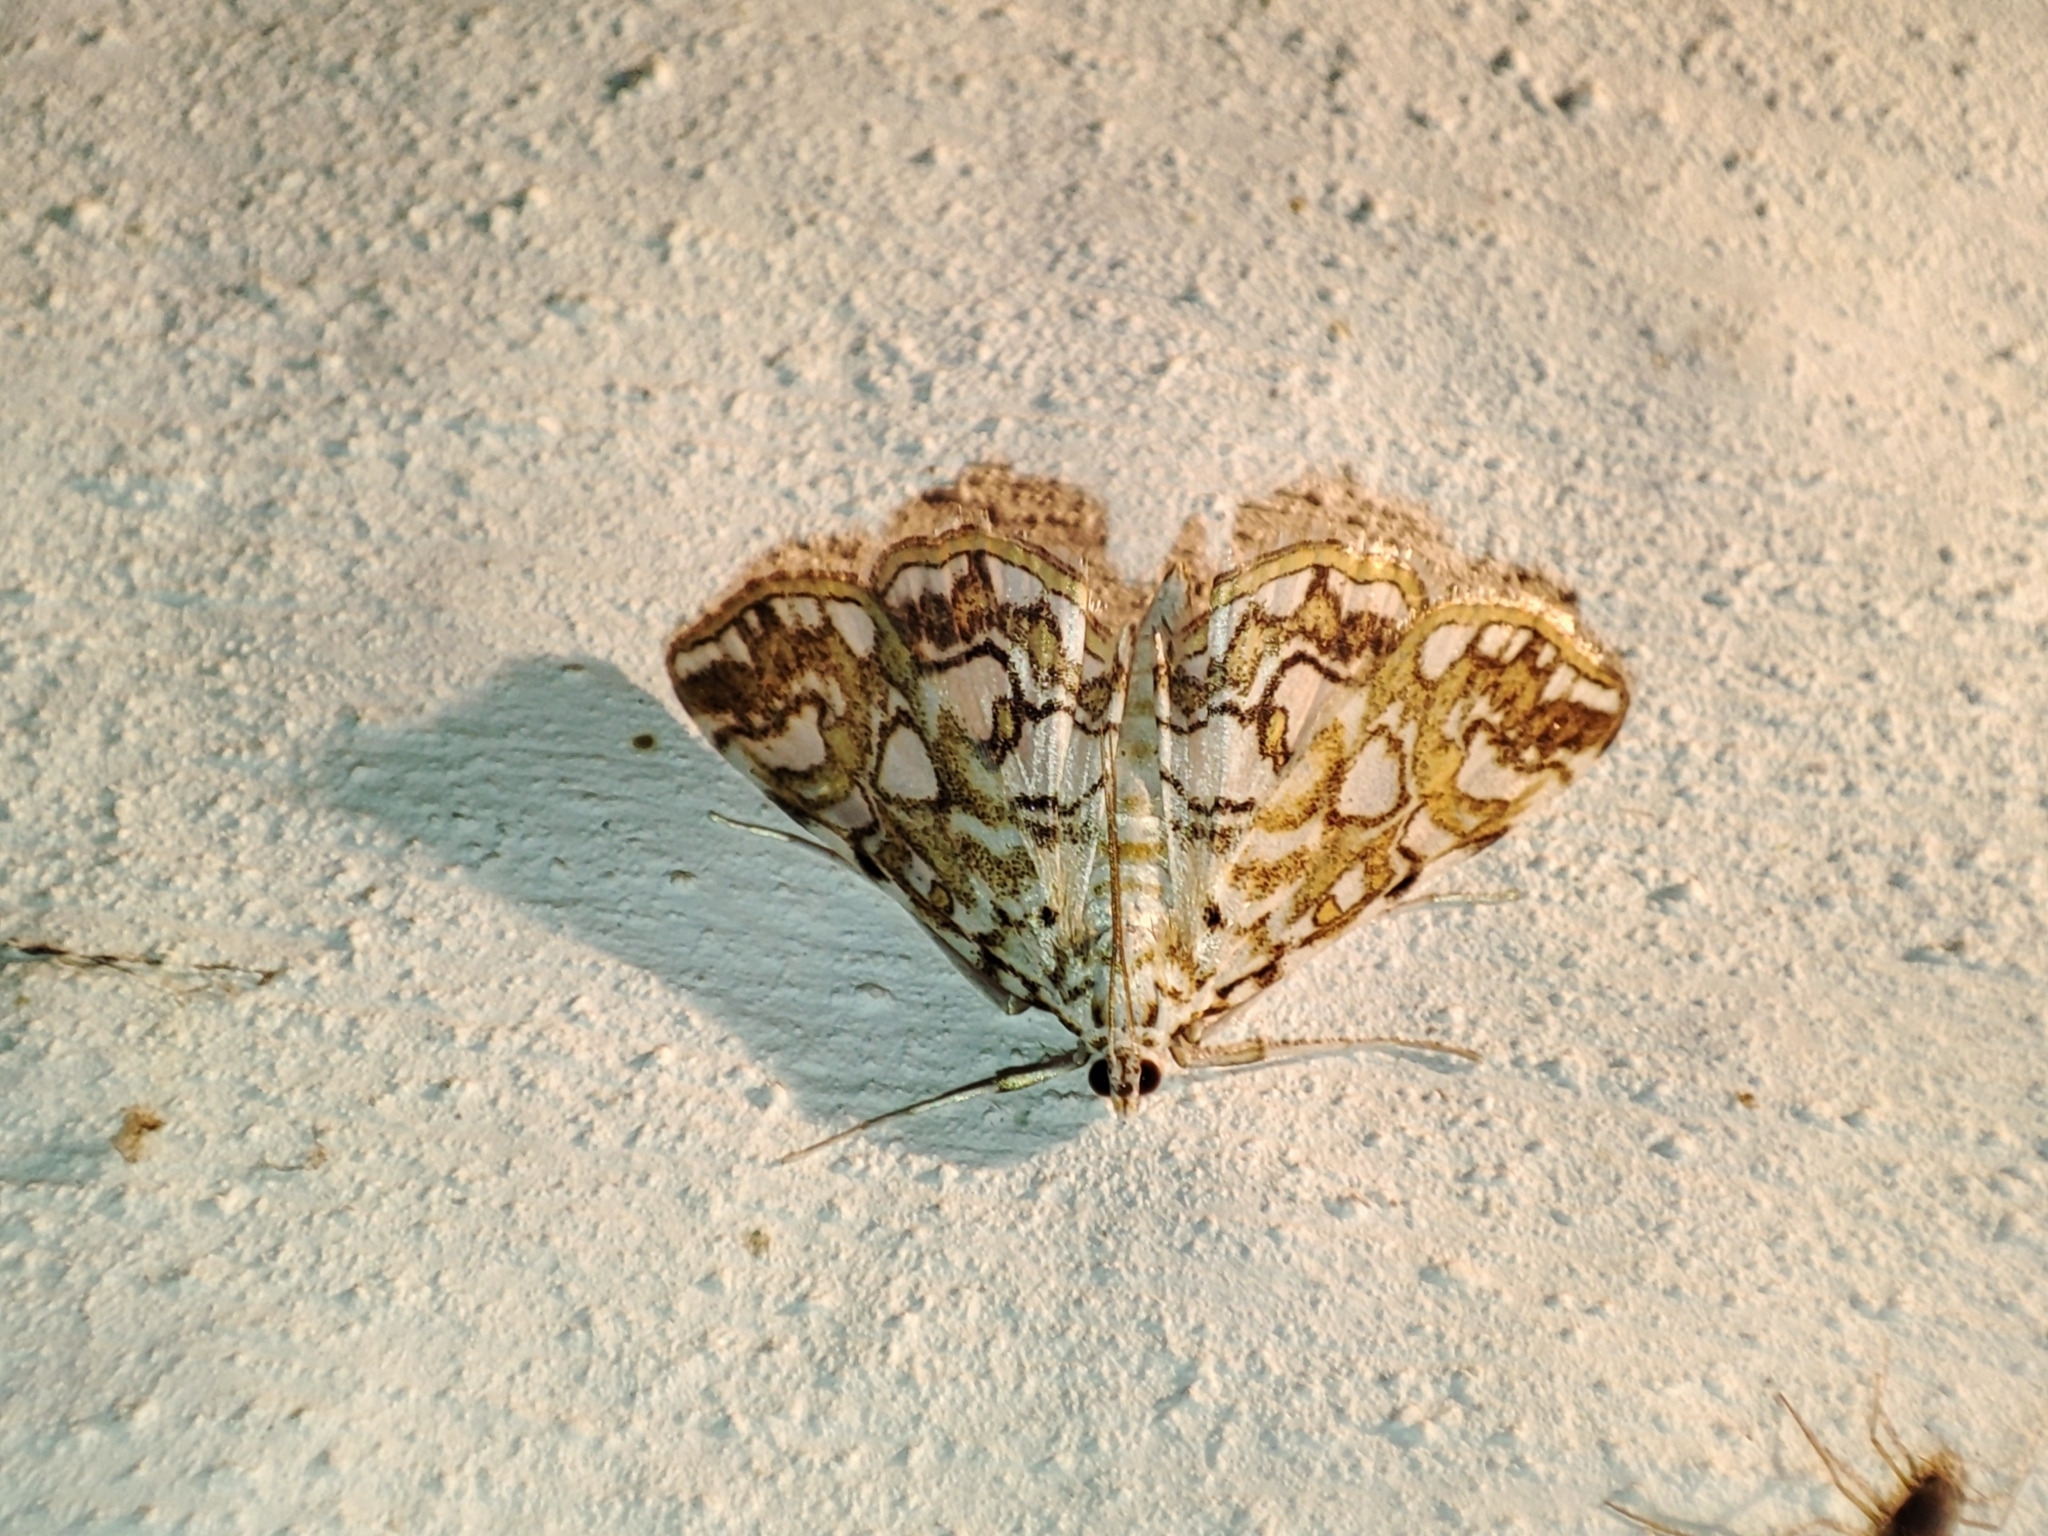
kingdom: Animalia
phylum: Arthropoda
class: Insecta
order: Lepidoptera
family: Crambidae
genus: Elophila
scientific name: Elophila nymphaeata
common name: Brown china-mark
